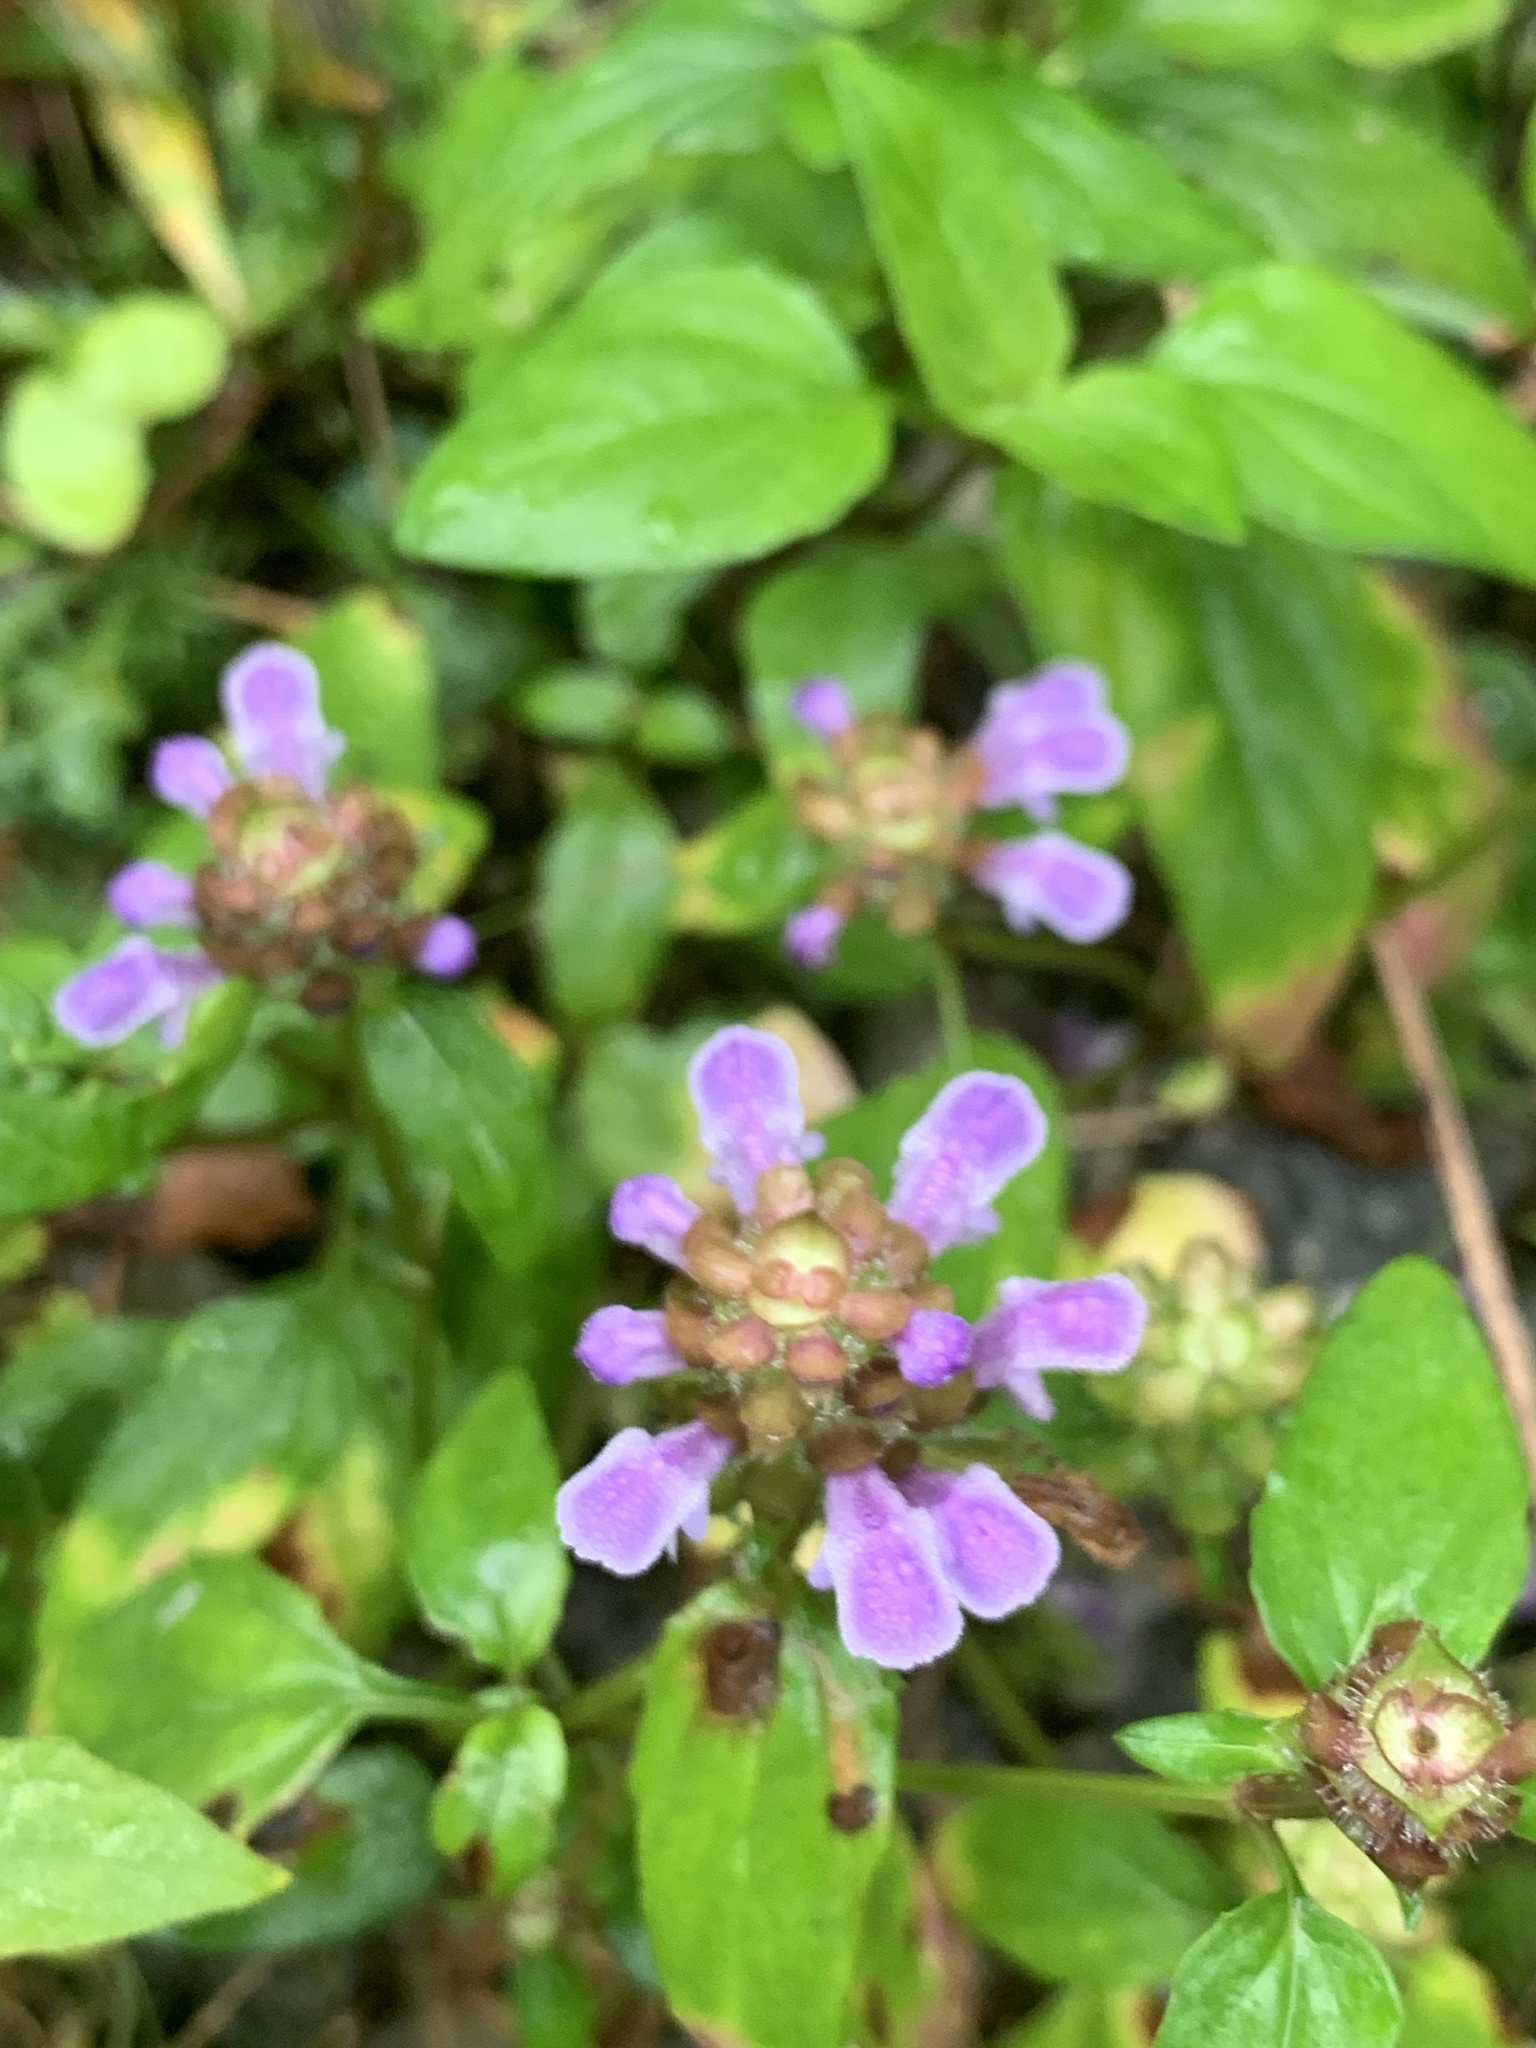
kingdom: Plantae
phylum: Tracheophyta
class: Magnoliopsida
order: Lamiales
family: Lamiaceae
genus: Prunella
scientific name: Prunella vulgaris
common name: Heal-all
